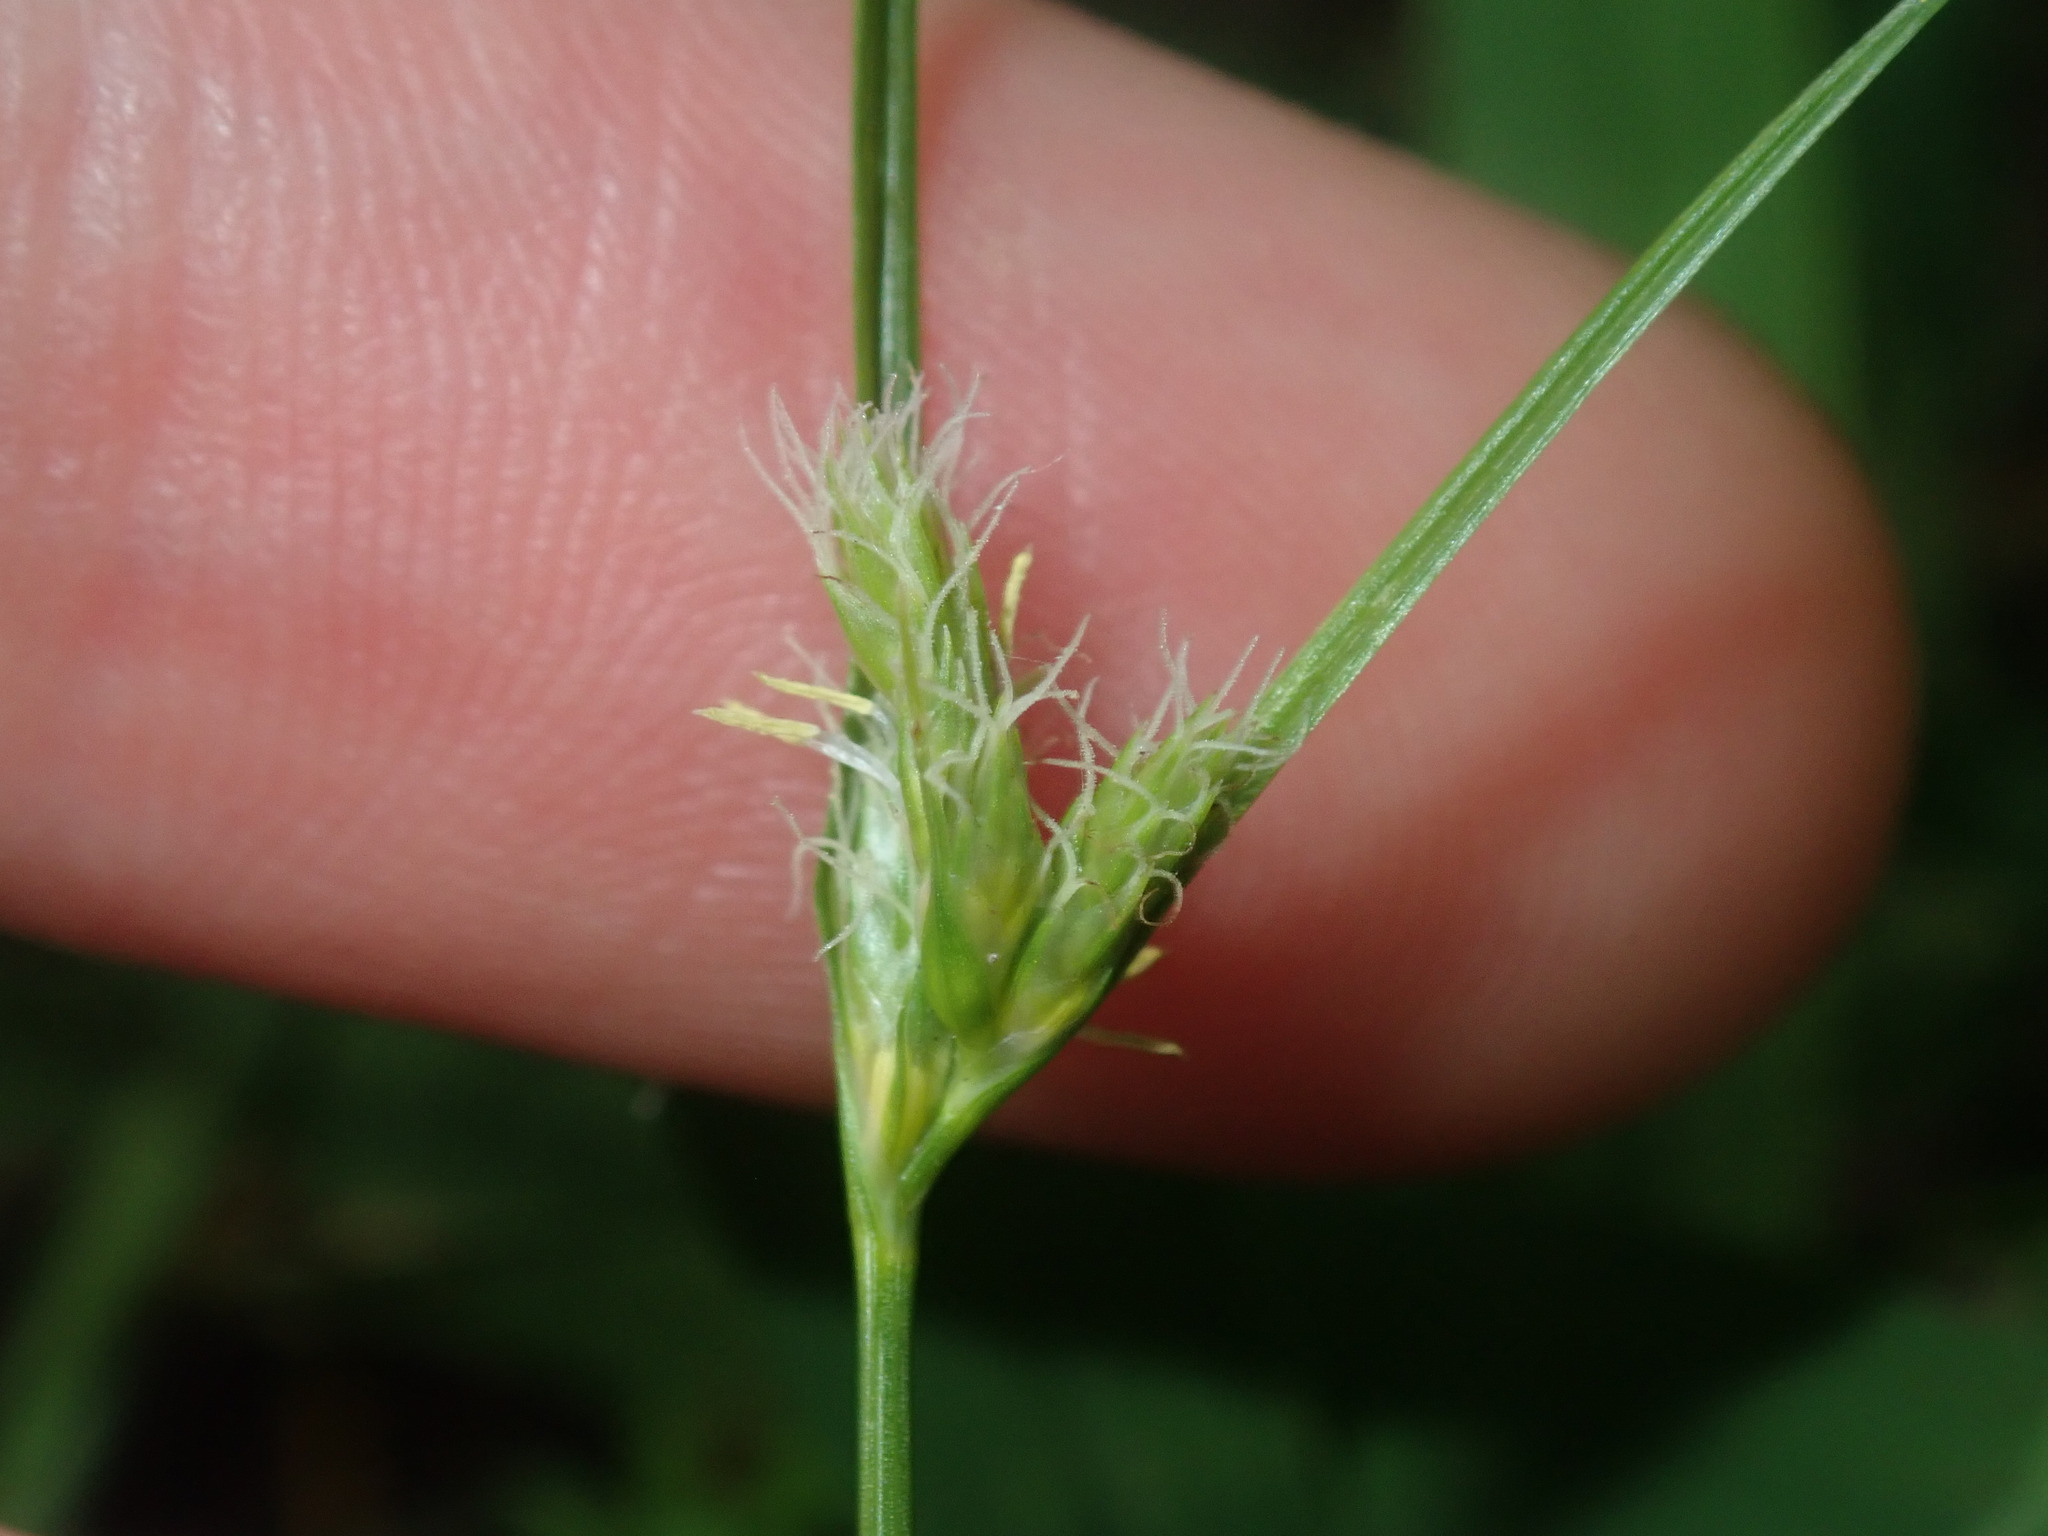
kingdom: Plantae
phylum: Tracheophyta
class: Liliopsida
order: Poales
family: Cyperaceae
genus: Carex
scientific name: Carex inversa
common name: Knob sedge
